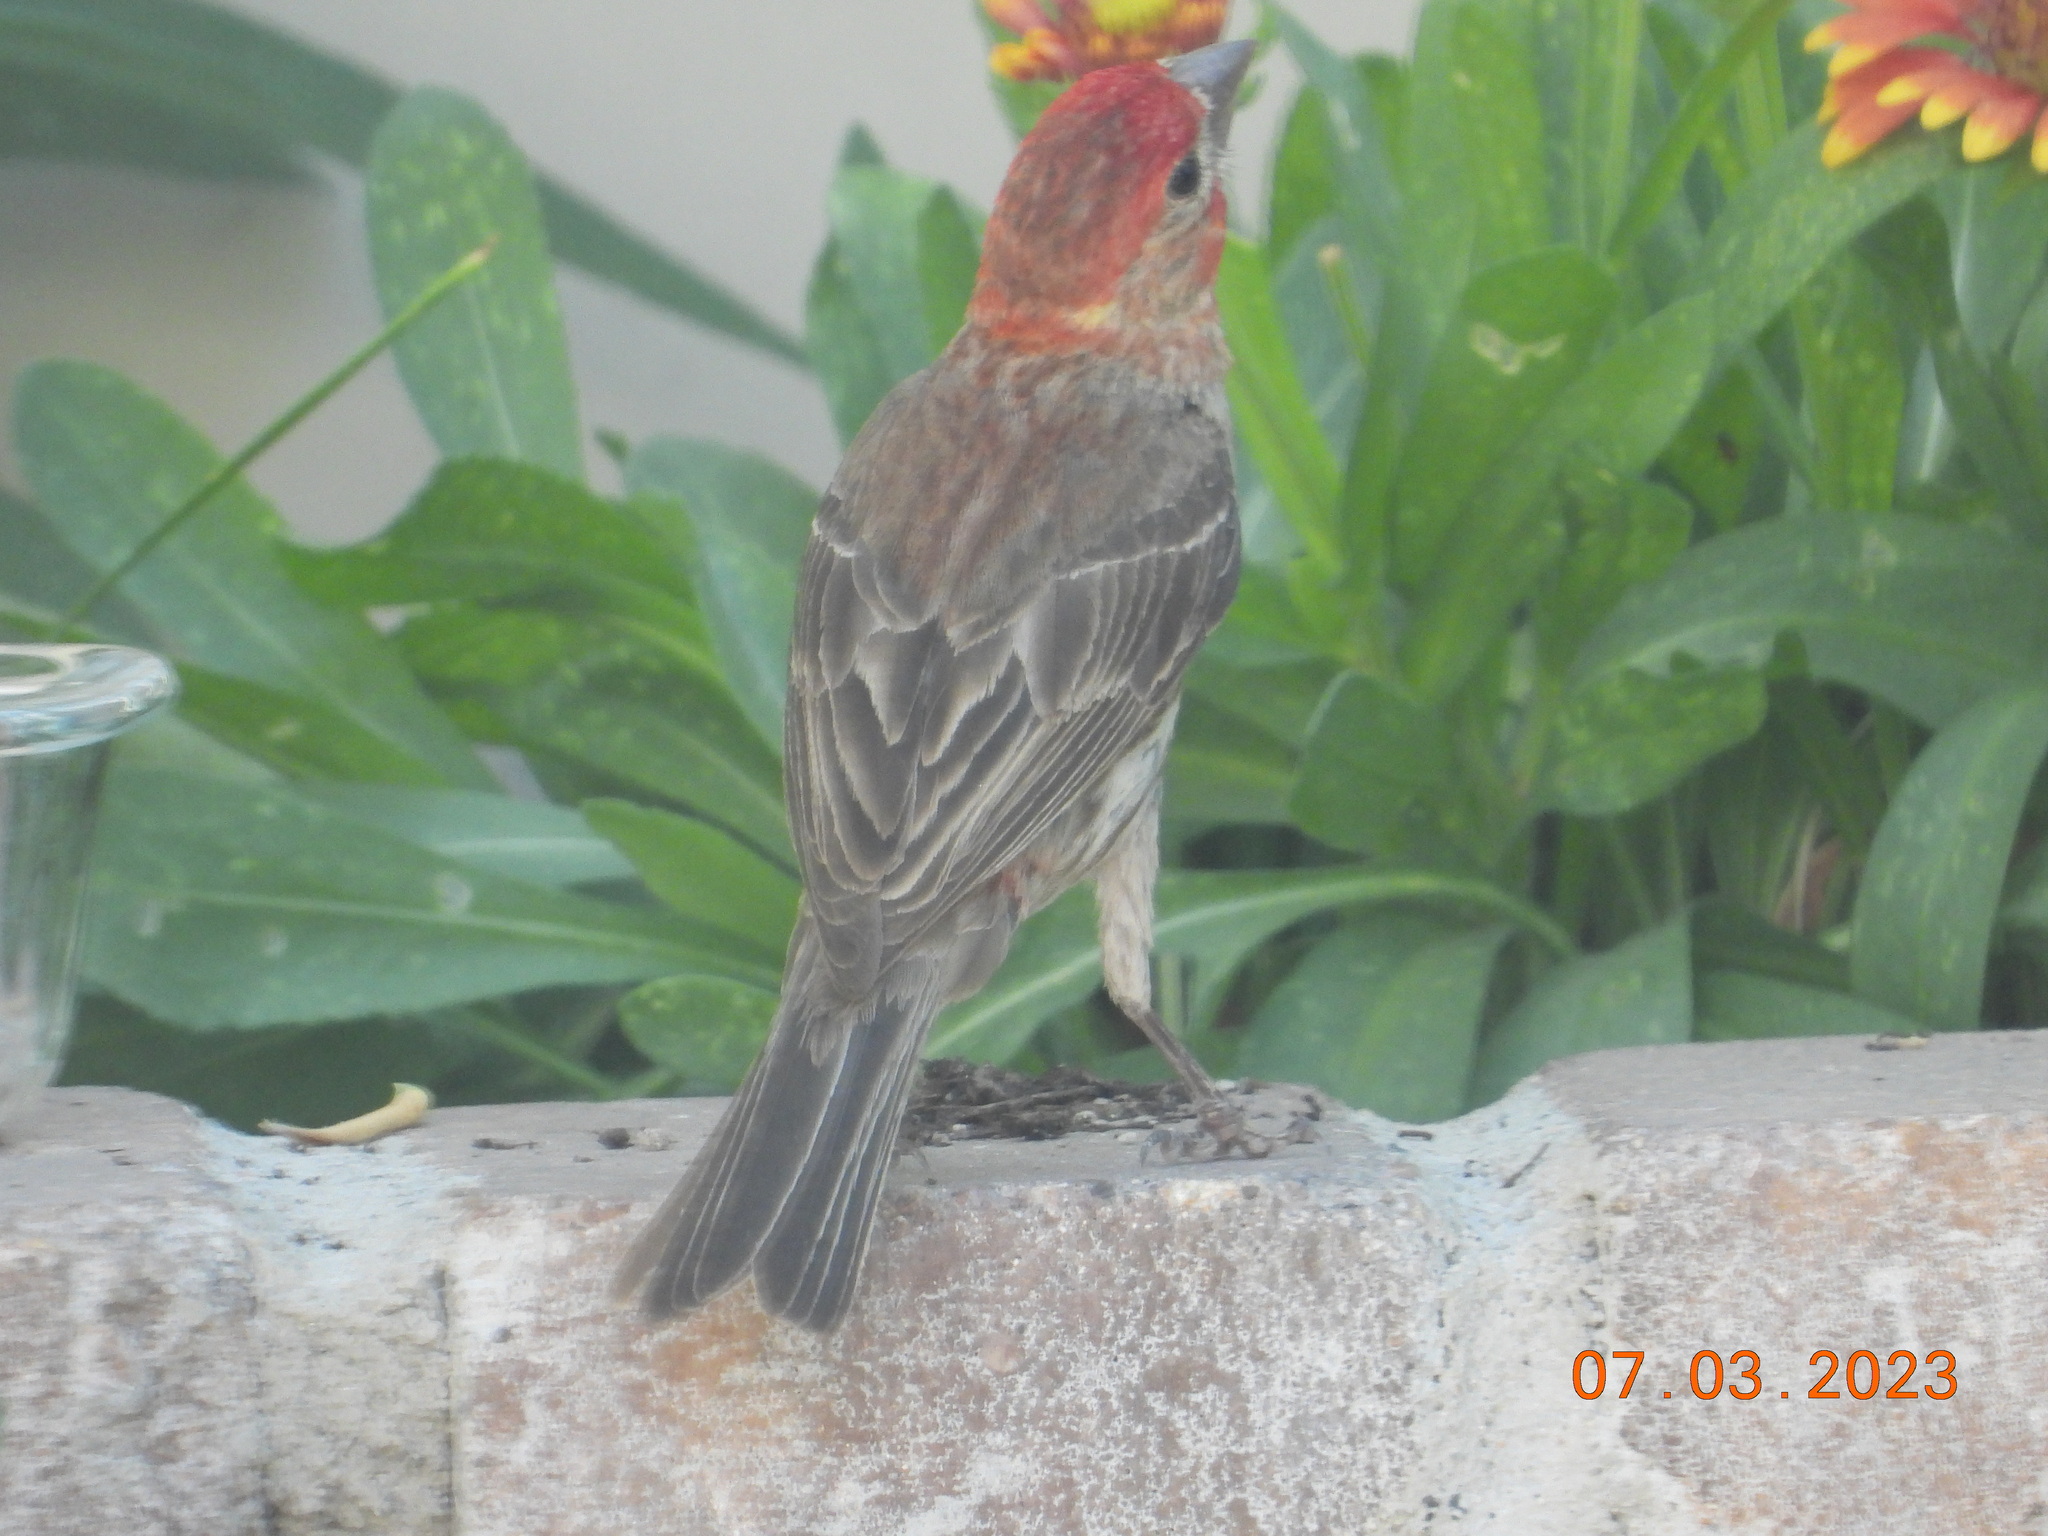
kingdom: Animalia
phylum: Chordata
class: Aves
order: Passeriformes
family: Fringillidae
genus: Haemorhous
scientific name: Haemorhous mexicanus
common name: House finch
